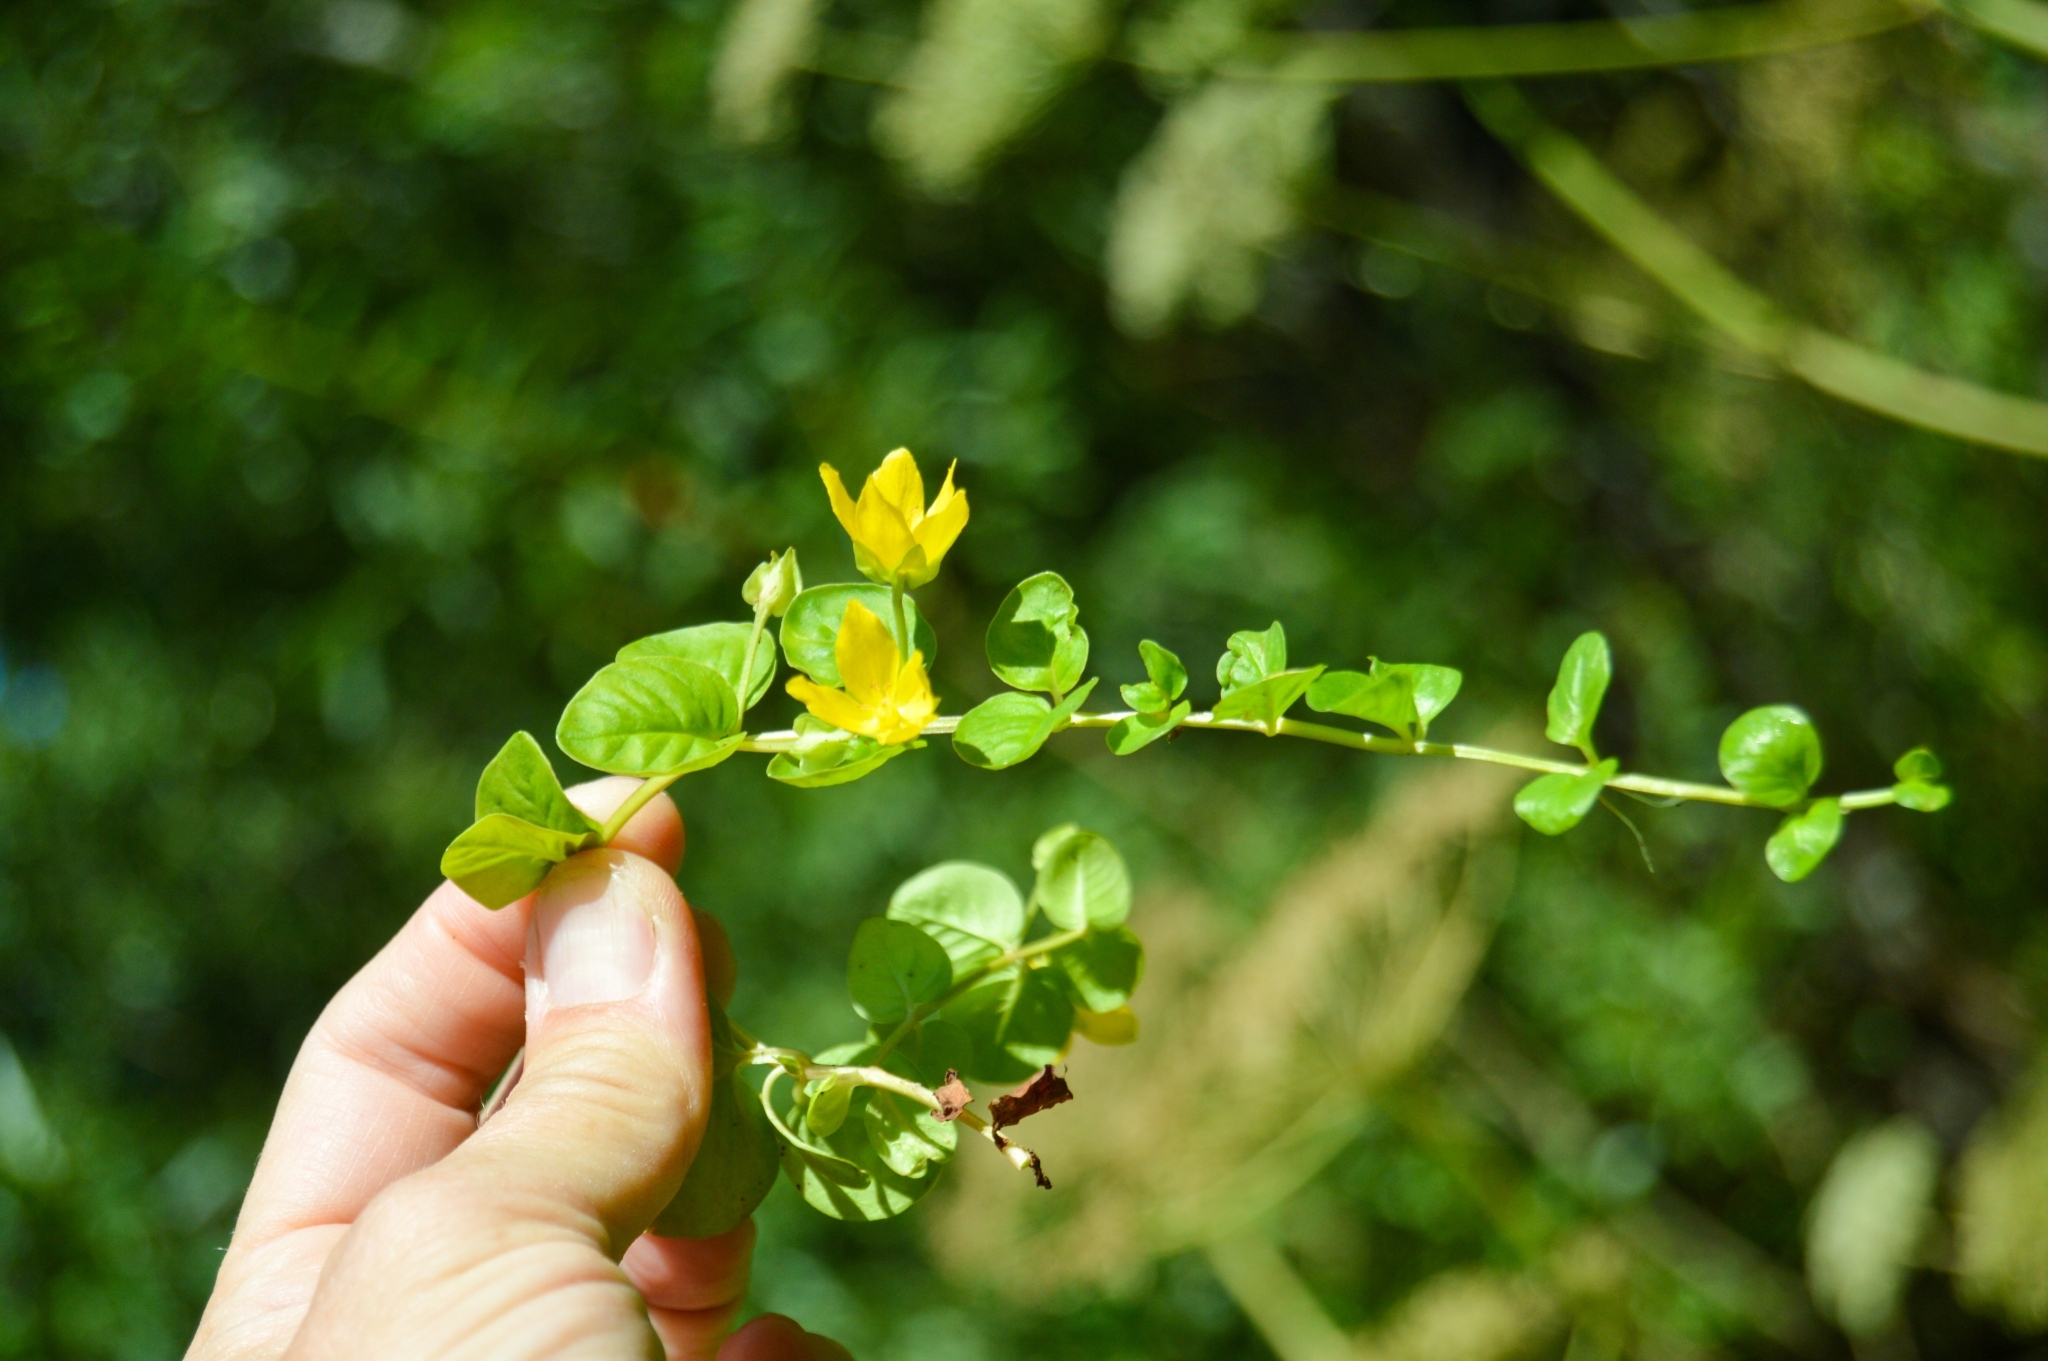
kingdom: Plantae
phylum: Tracheophyta
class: Magnoliopsida
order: Ericales
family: Primulaceae
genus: Lysimachia
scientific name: Lysimachia nummularia
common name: Moneywort
